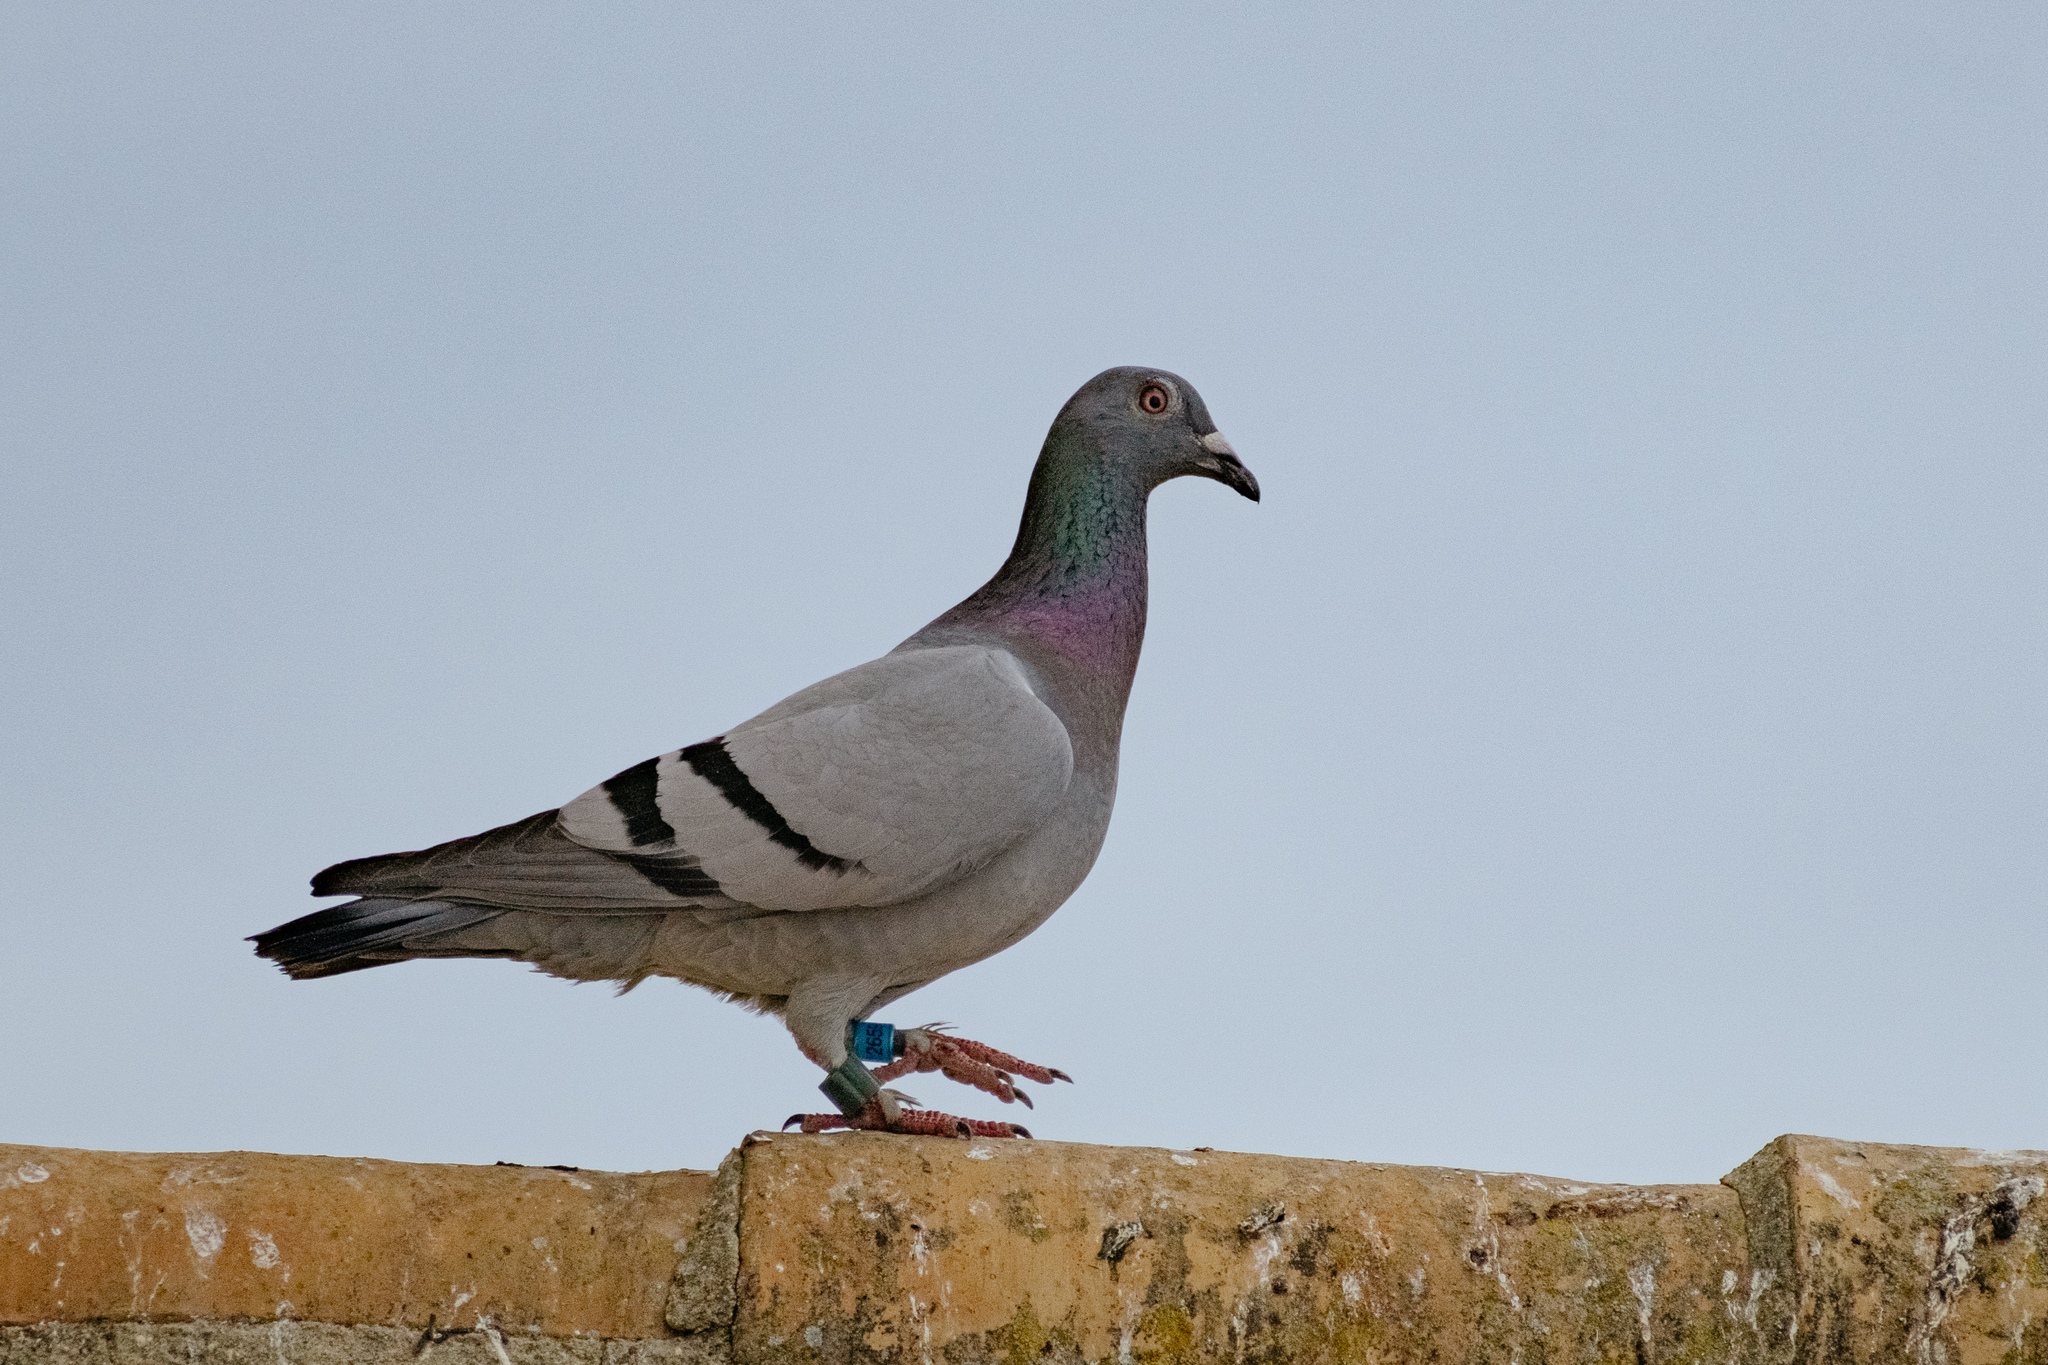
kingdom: Animalia
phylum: Chordata
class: Aves
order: Columbiformes
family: Columbidae
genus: Columba
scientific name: Columba livia
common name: Rock pigeon
